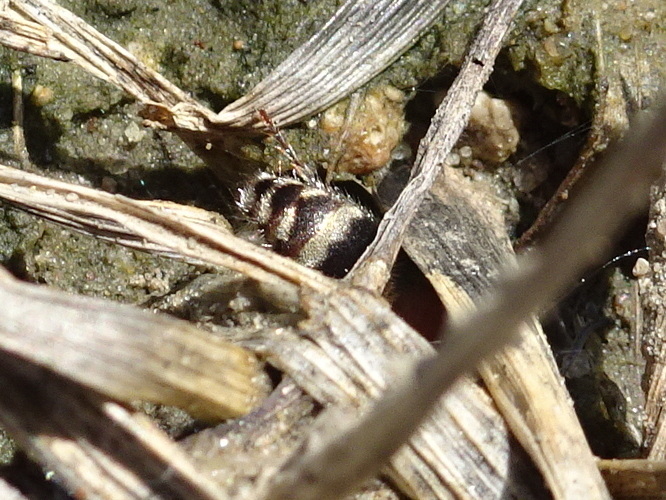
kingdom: Animalia
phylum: Arthropoda
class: Insecta
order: Hymenoptera
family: Mutillidae
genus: Timulla
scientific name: Timulla
